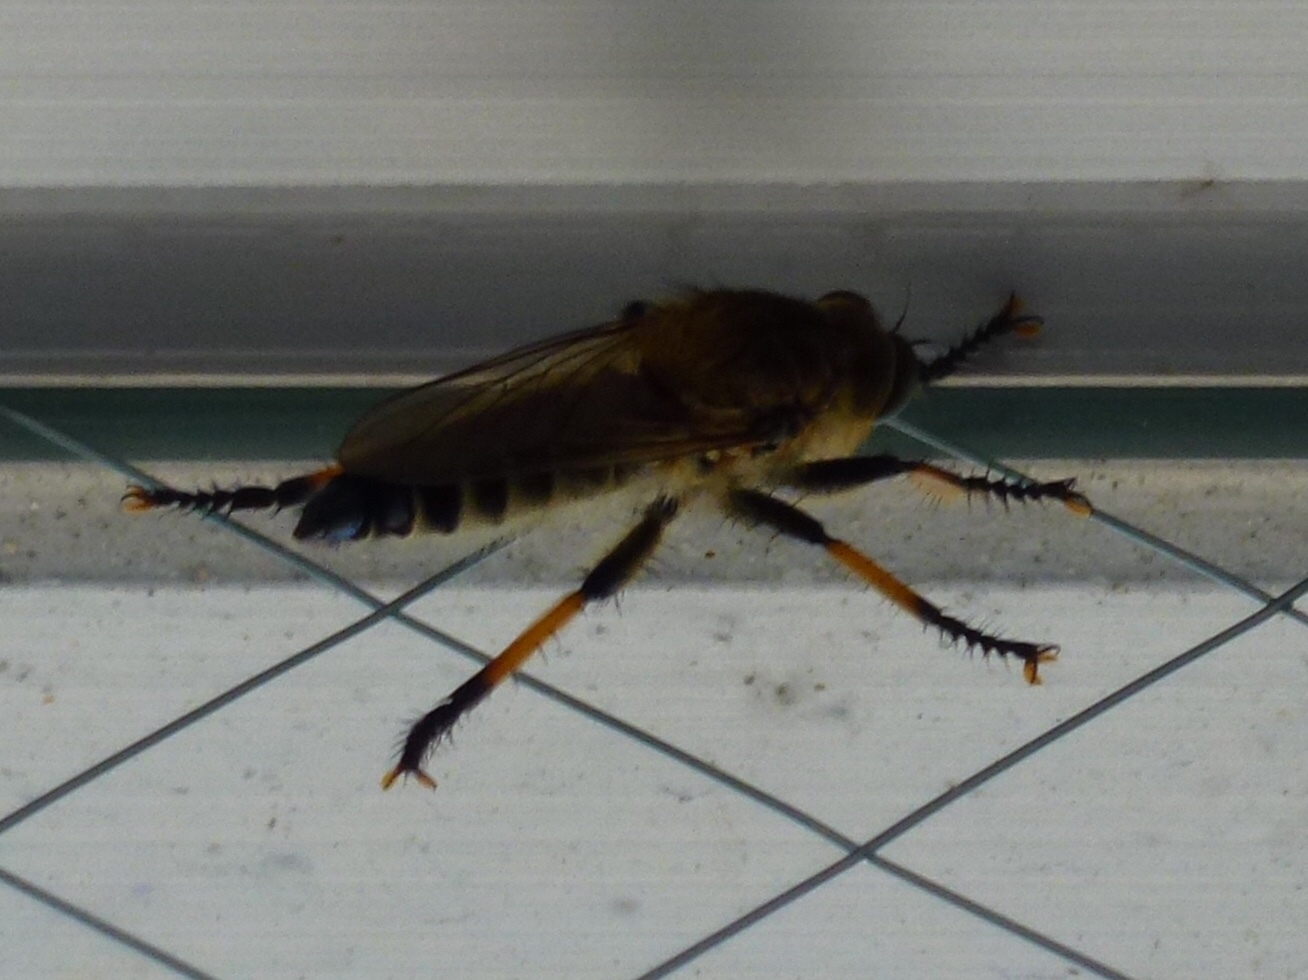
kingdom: Animalia
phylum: Arthropoda
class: Insecta
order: Diptera
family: Asilidae
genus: Promachus
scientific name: Promachus yesonicus
